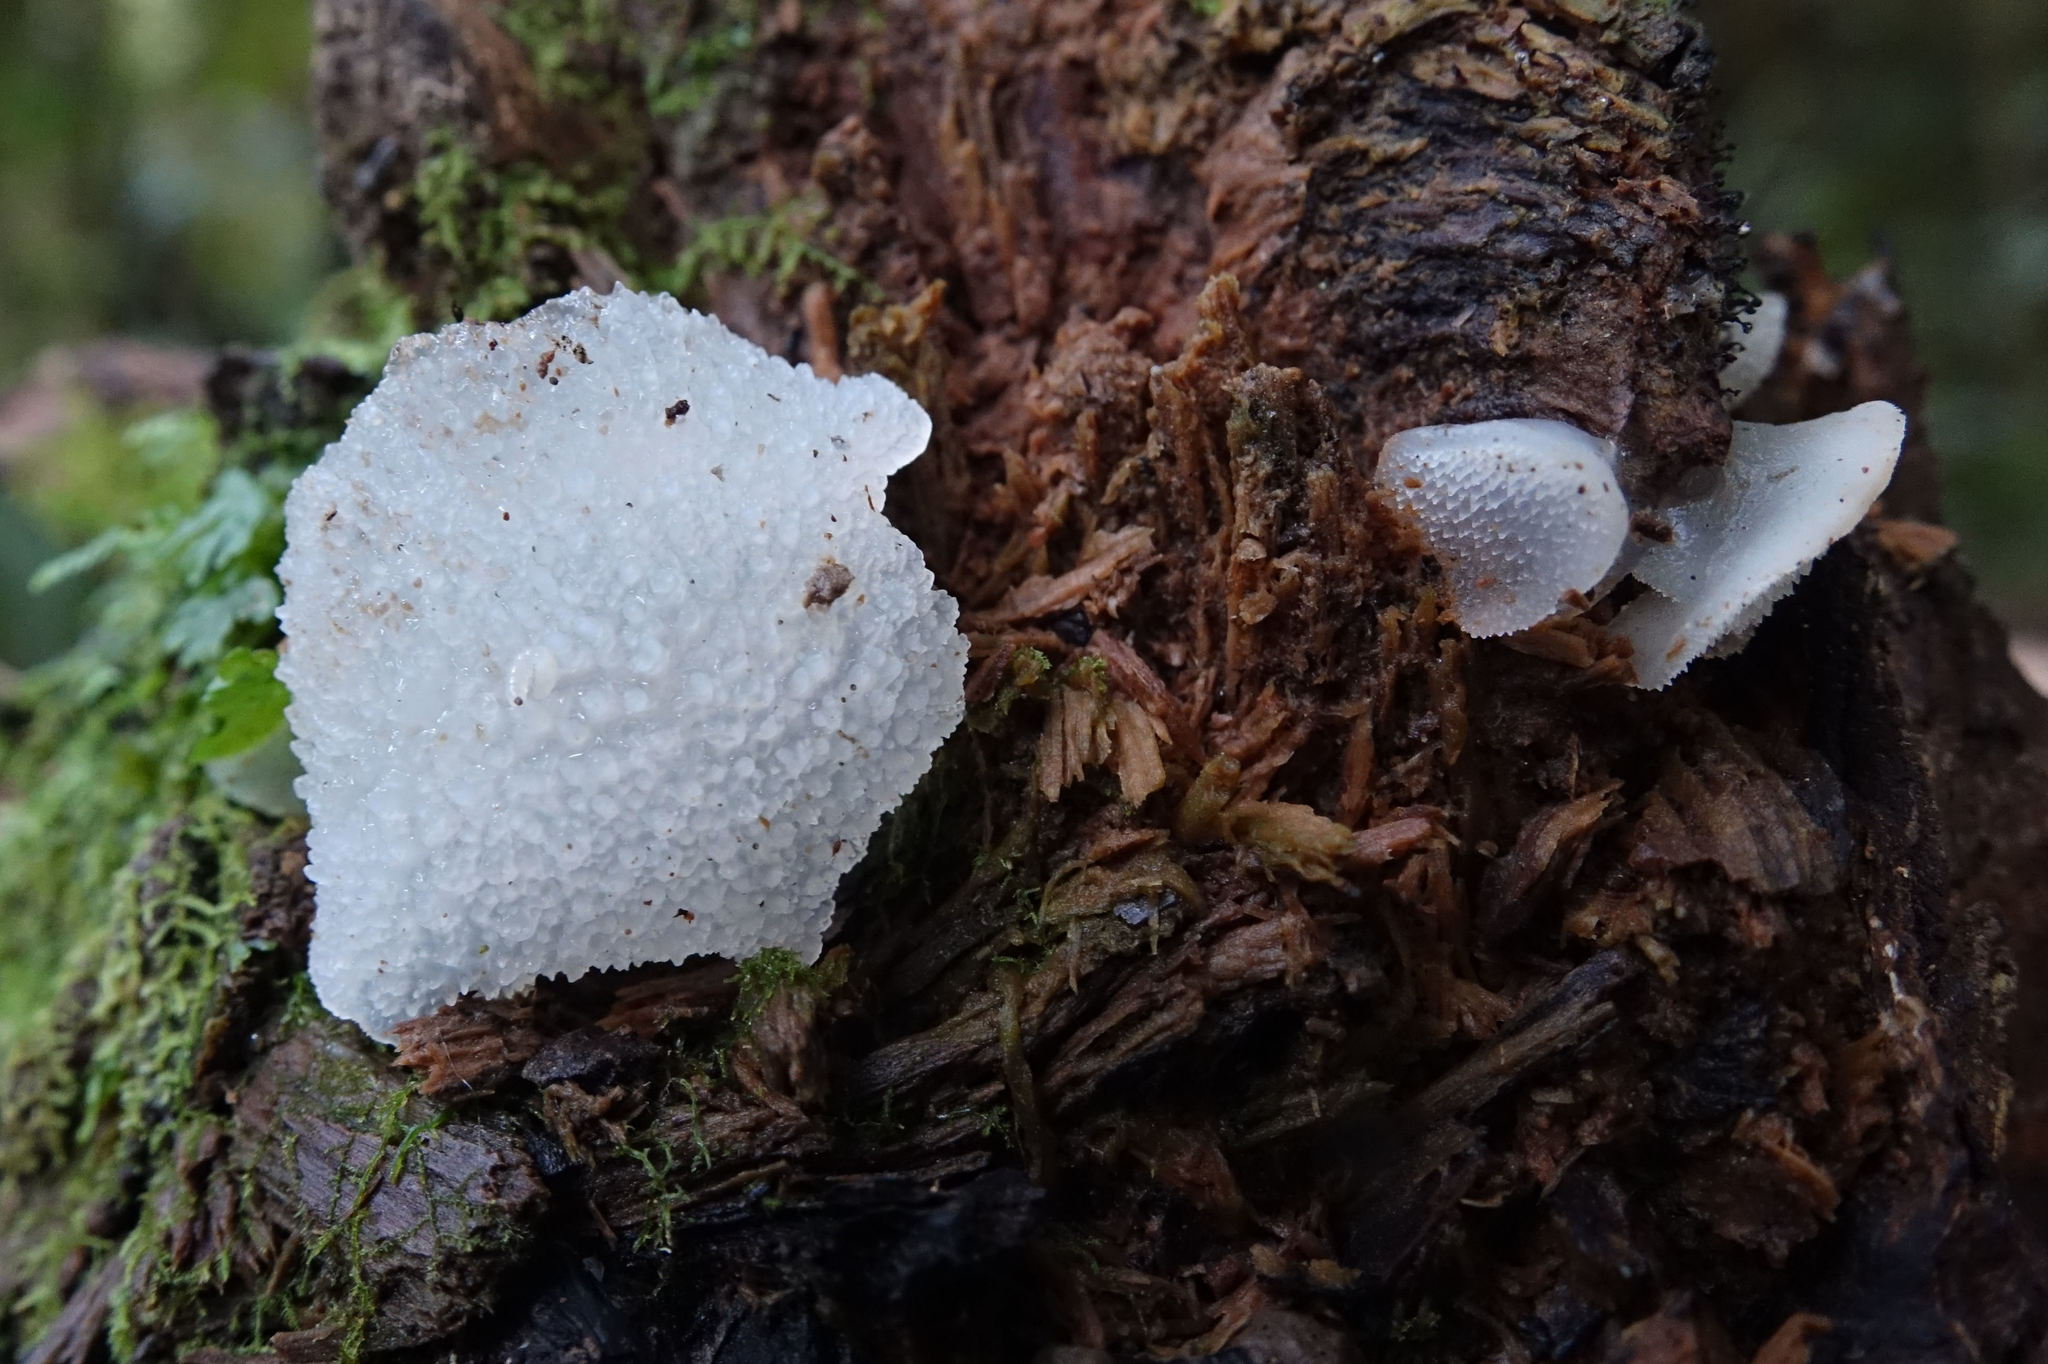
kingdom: Fungi
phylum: Basidiomycota
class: Agaricomycetes
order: Auriculariales
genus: Pseudohydnum
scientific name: Pseudohydnum orbiculare
